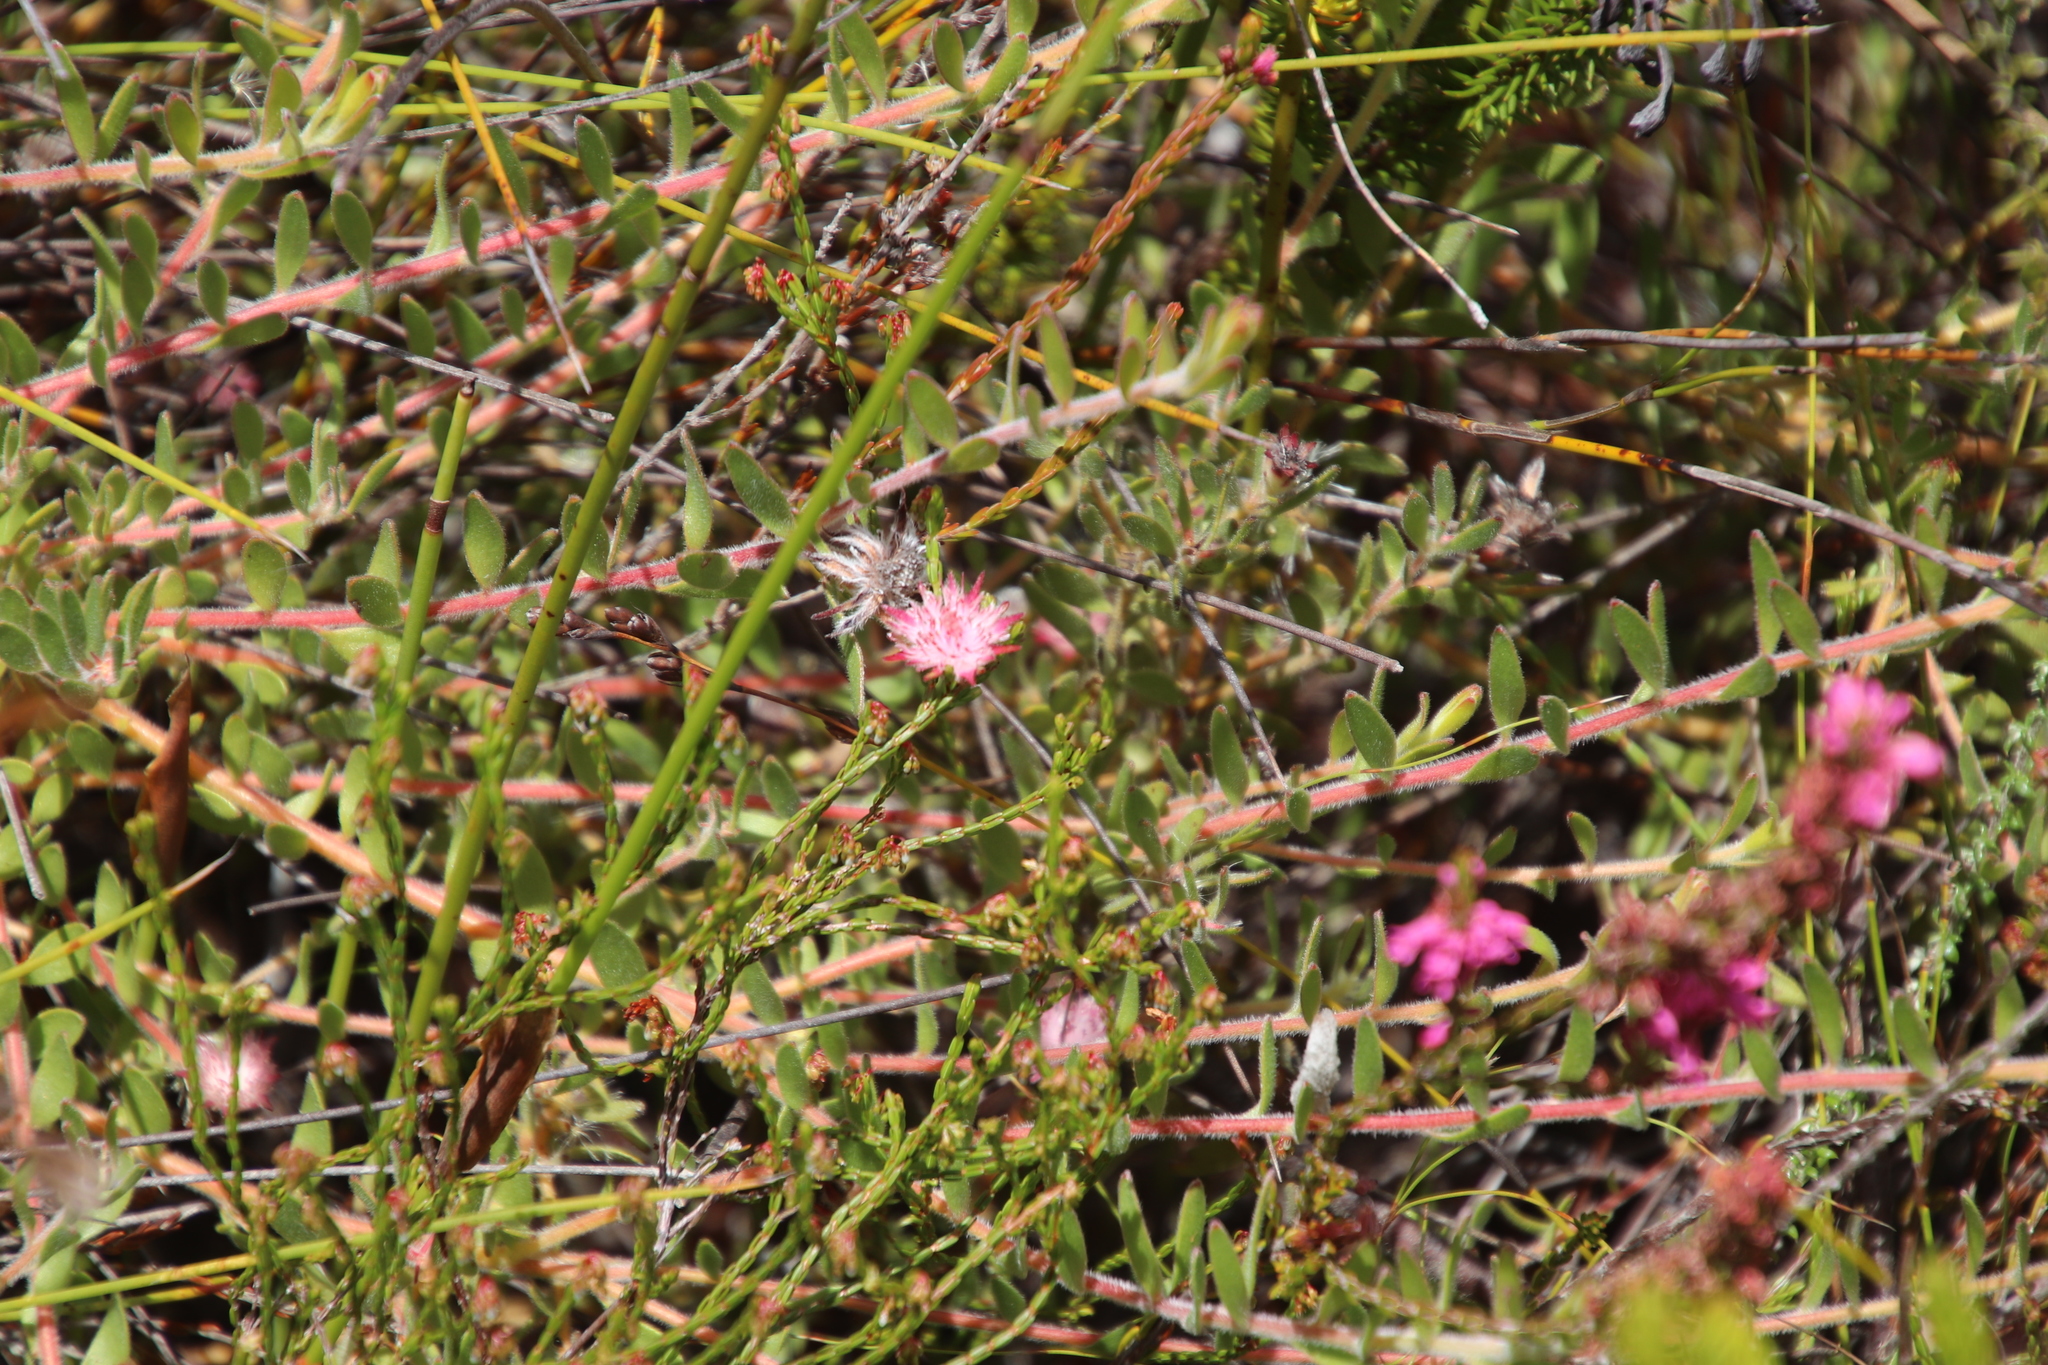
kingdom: Plantae
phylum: Tracheophyta
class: Magnoliopsida
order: Proteales
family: Proteaceae
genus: Diastella
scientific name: Diastella divaricata
